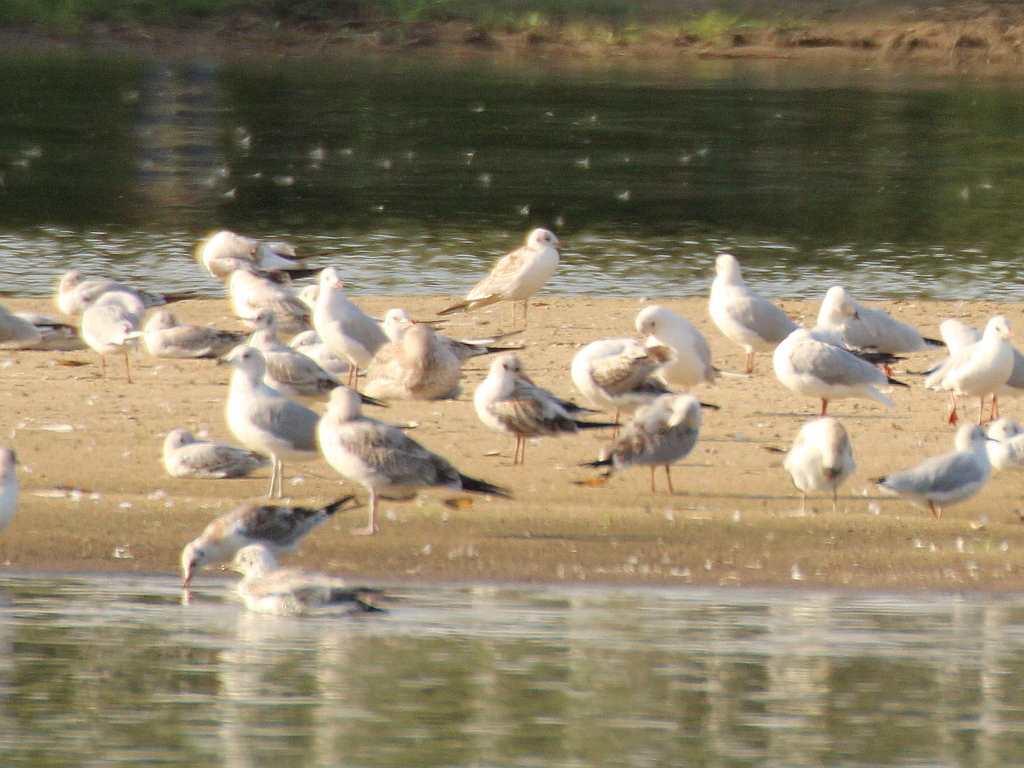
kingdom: Animalia
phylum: Chordata
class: Aves
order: Charadriiformes
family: Laridae
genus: Chroicocephalus
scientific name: Chroicocephalus ridibundus
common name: Black-headed gull
